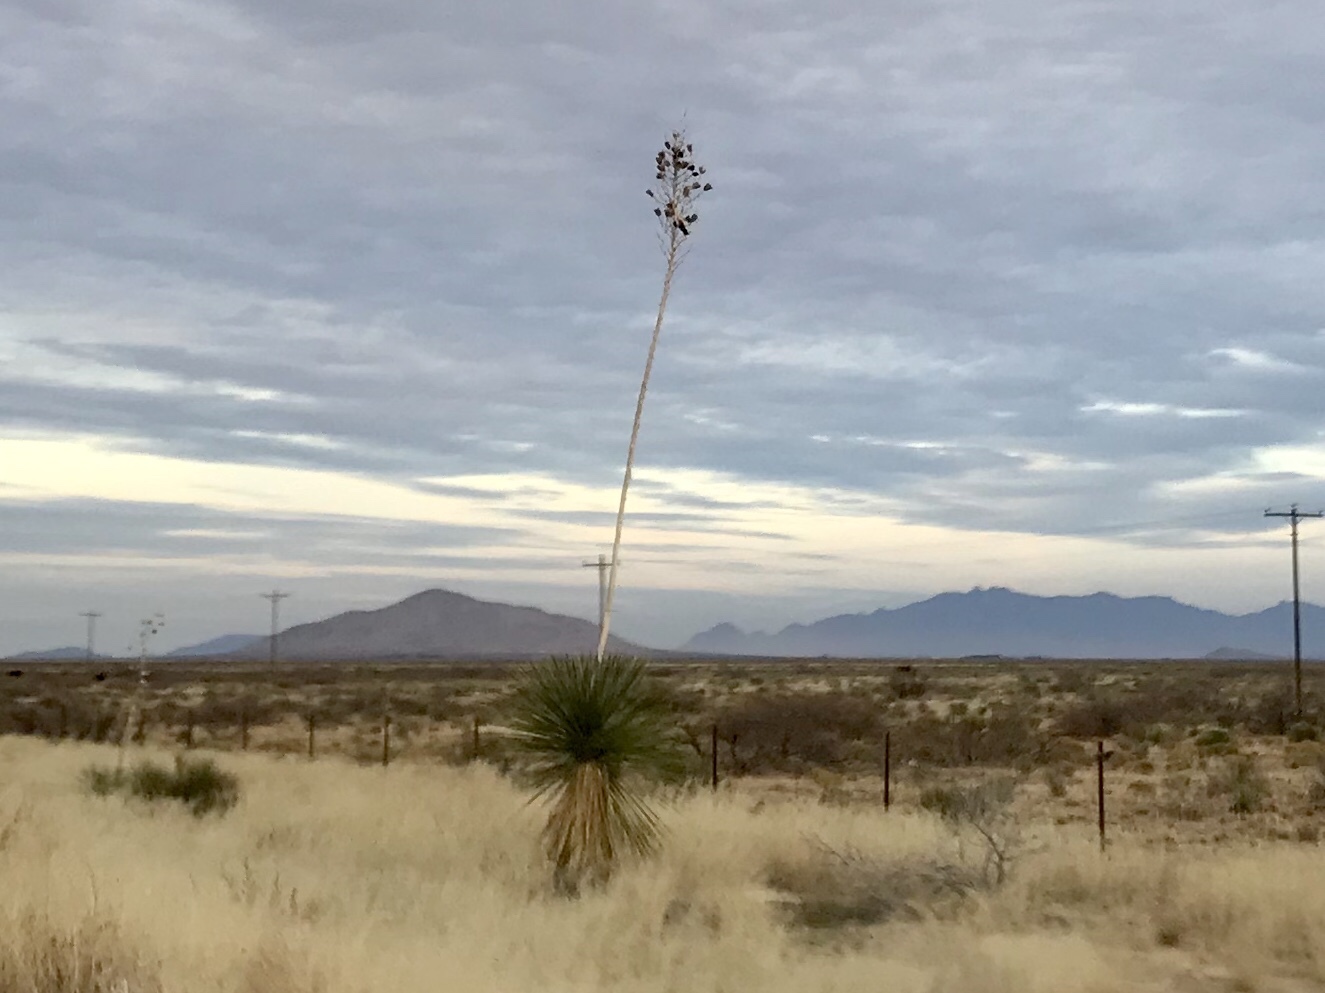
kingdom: Plantae
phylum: Tracheophyta
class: Liliopsida
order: Asparagales
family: Asparagaceae
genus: Yucca
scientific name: Yucca elata
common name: Palmella
